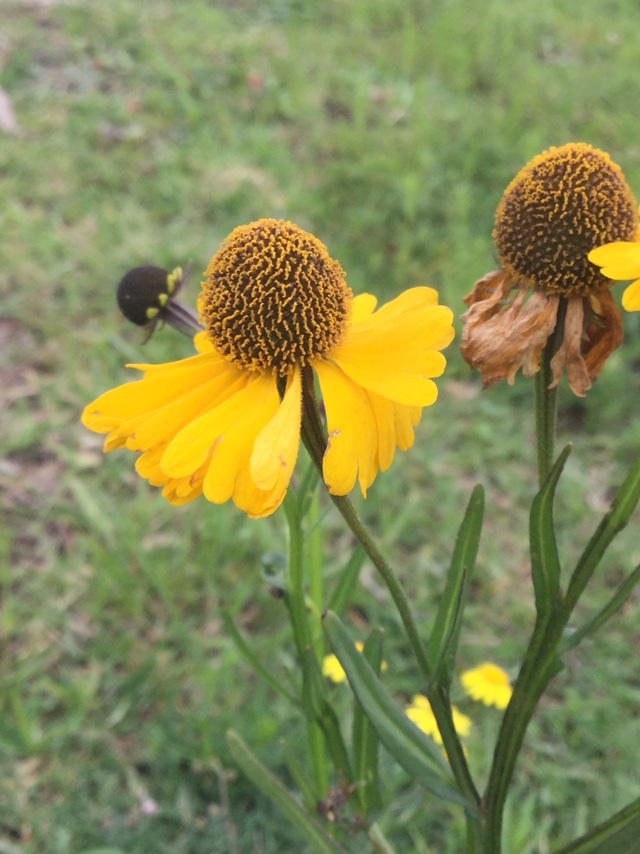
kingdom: Plantae
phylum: Tracheophyta
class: Magnoliopsida
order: Asterales
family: Asteraceae
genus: Helenium
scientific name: Helenium mexicanum
